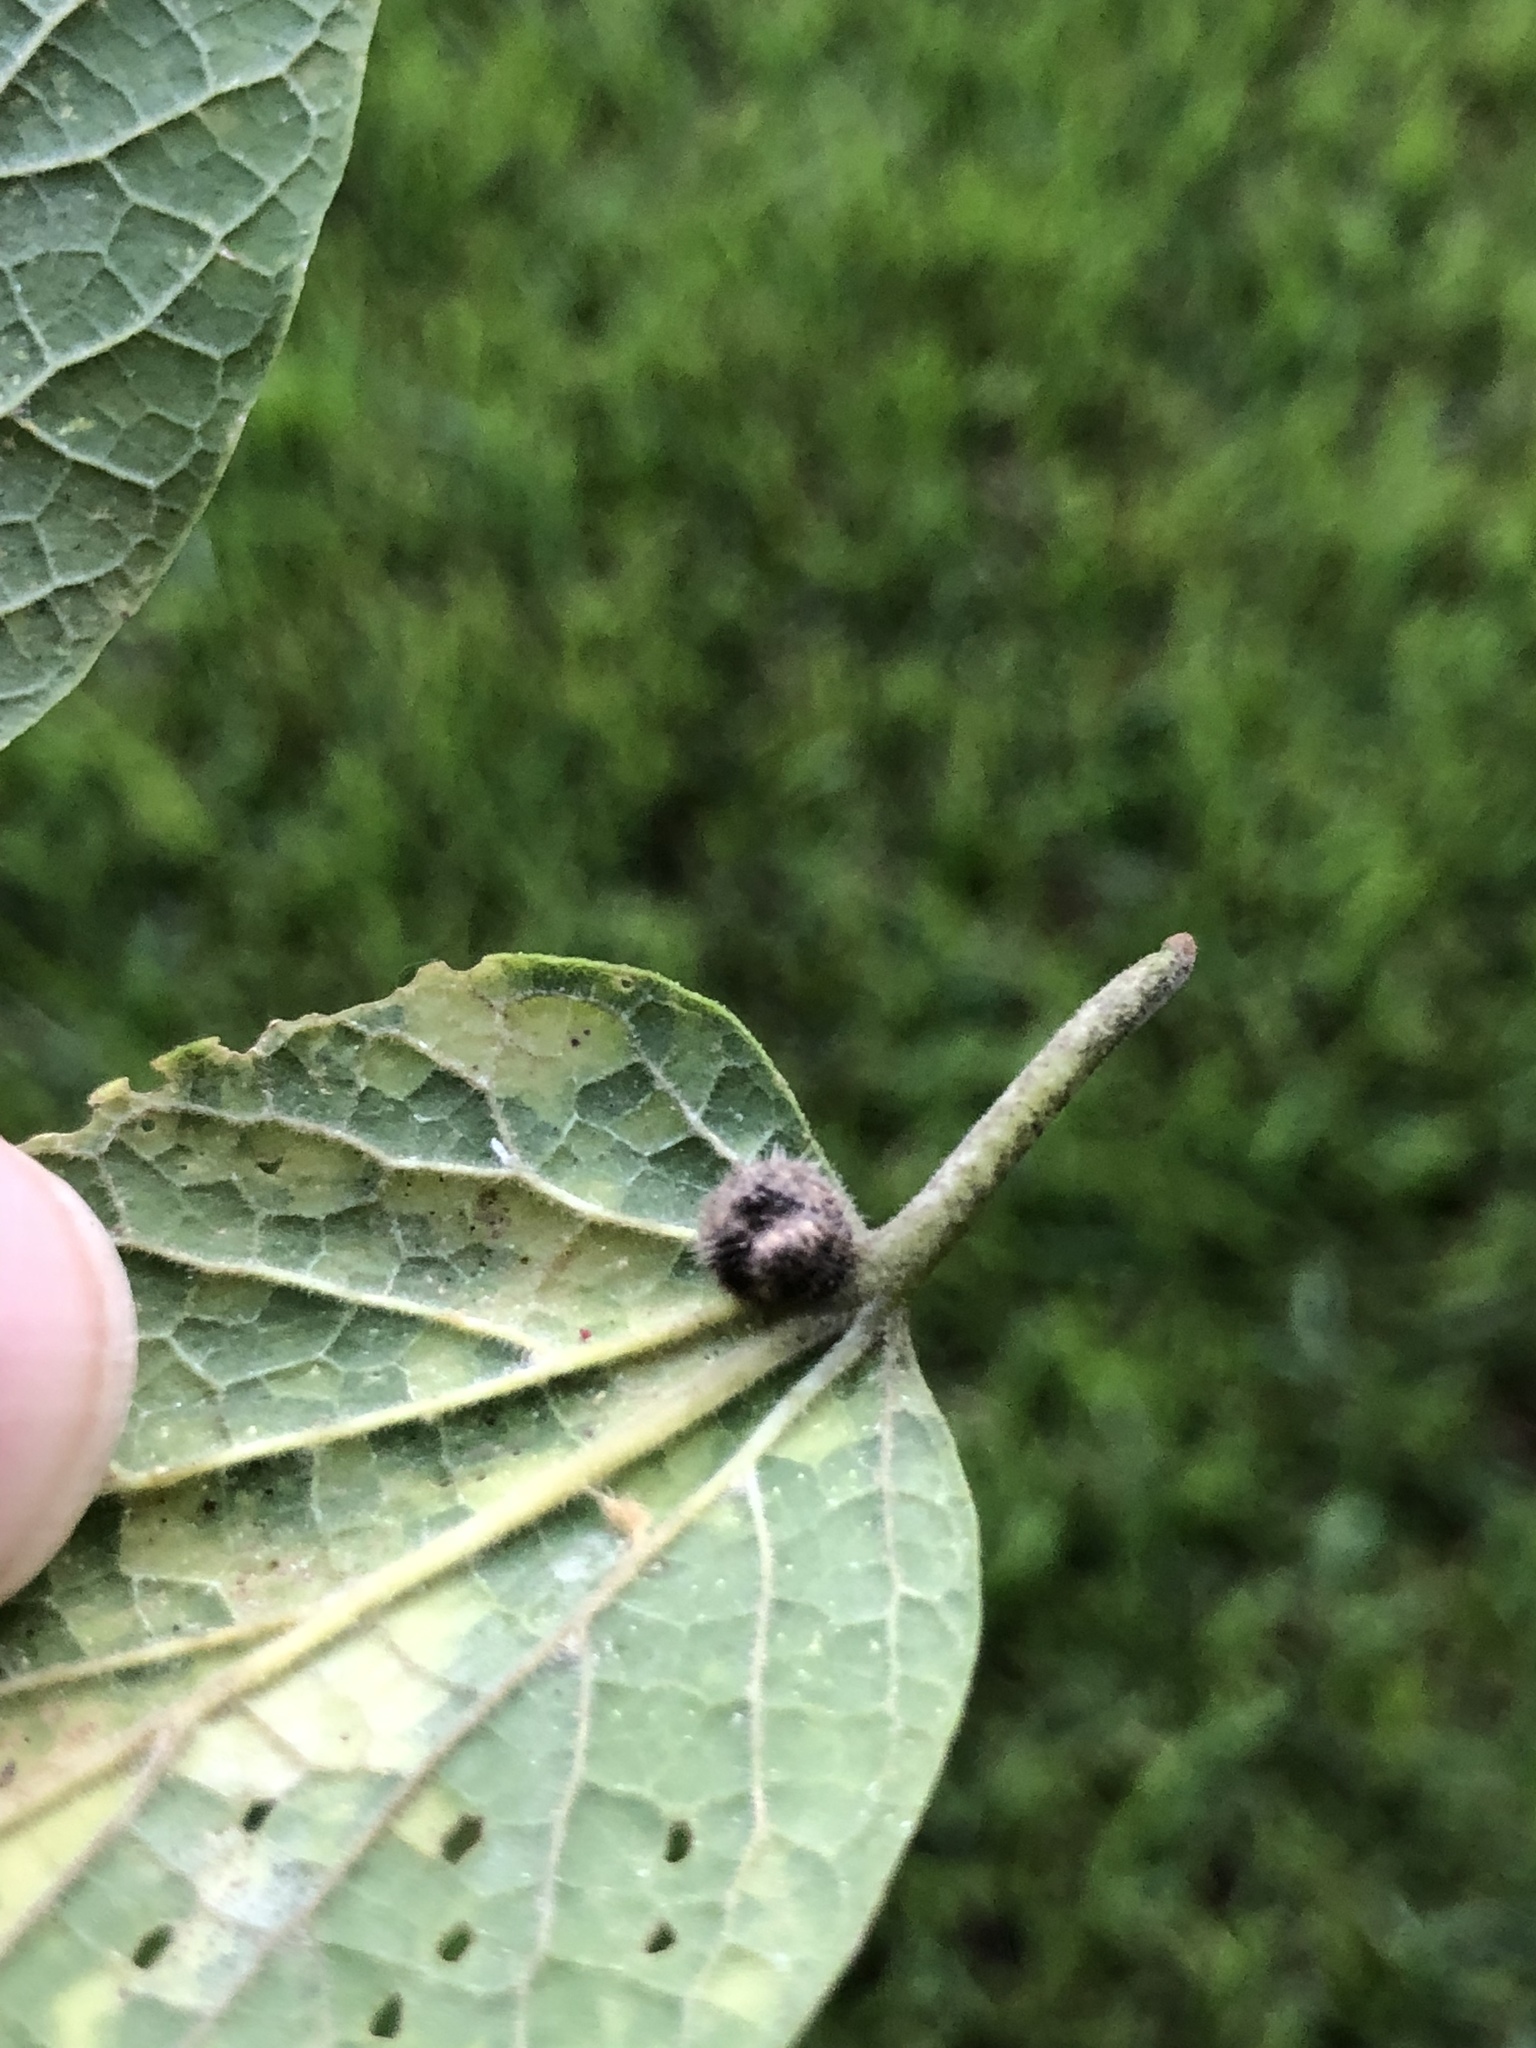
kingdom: Animalia
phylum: Arthropoda
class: Insecta
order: Diptera
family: Cecidomyiidae
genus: Celticecis
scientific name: Celticecis pubescens
